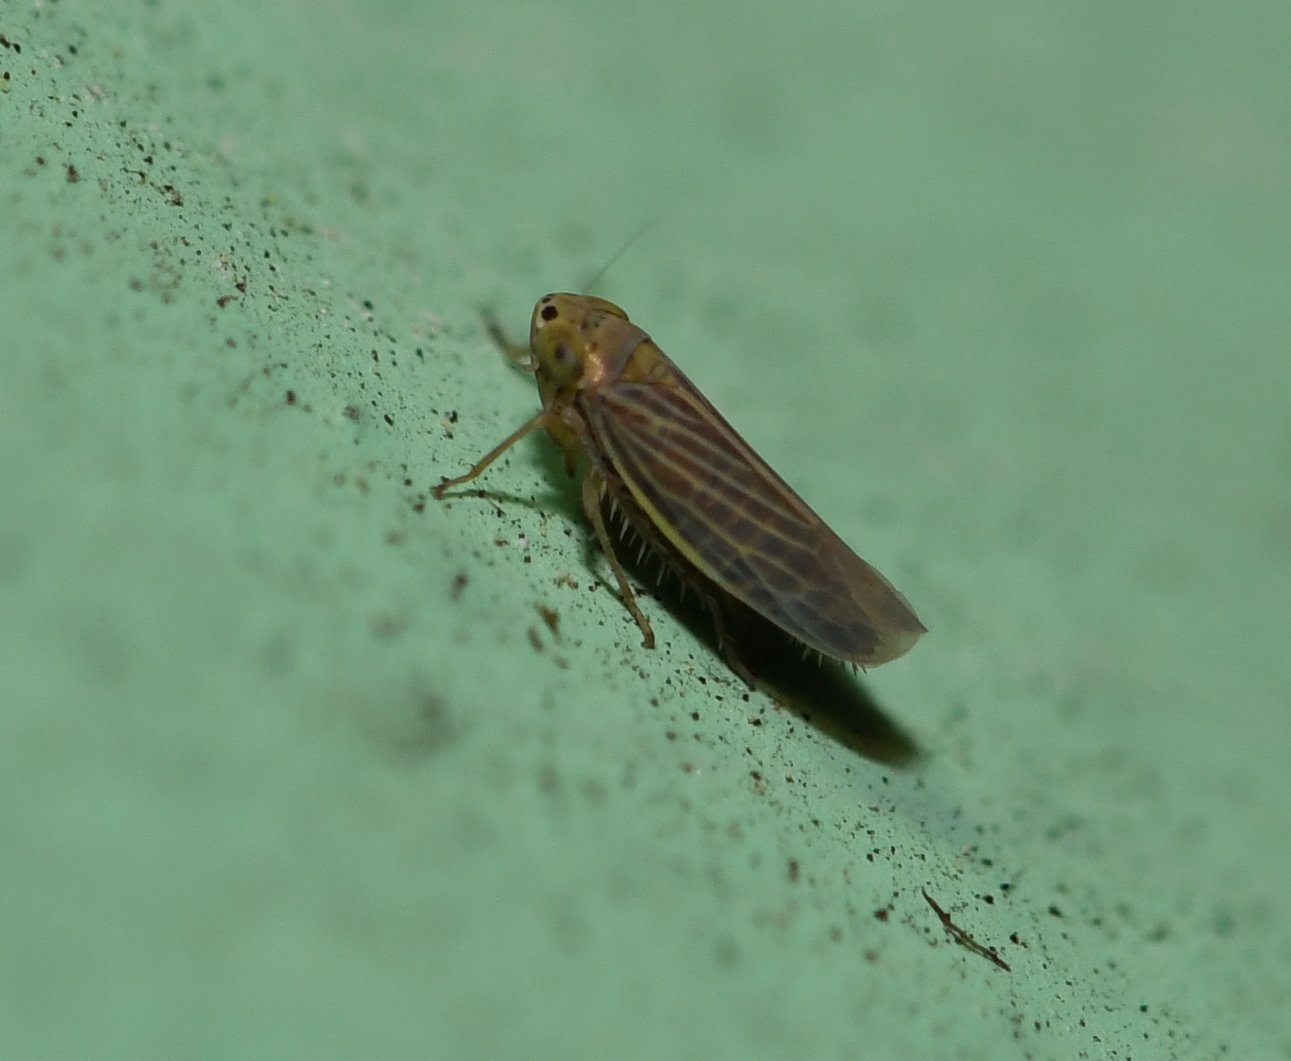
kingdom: Animalia
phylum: Arthropoda
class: Insecta
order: Hemiptera
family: Cicadellidae
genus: Graminella
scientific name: Graminella cognita
